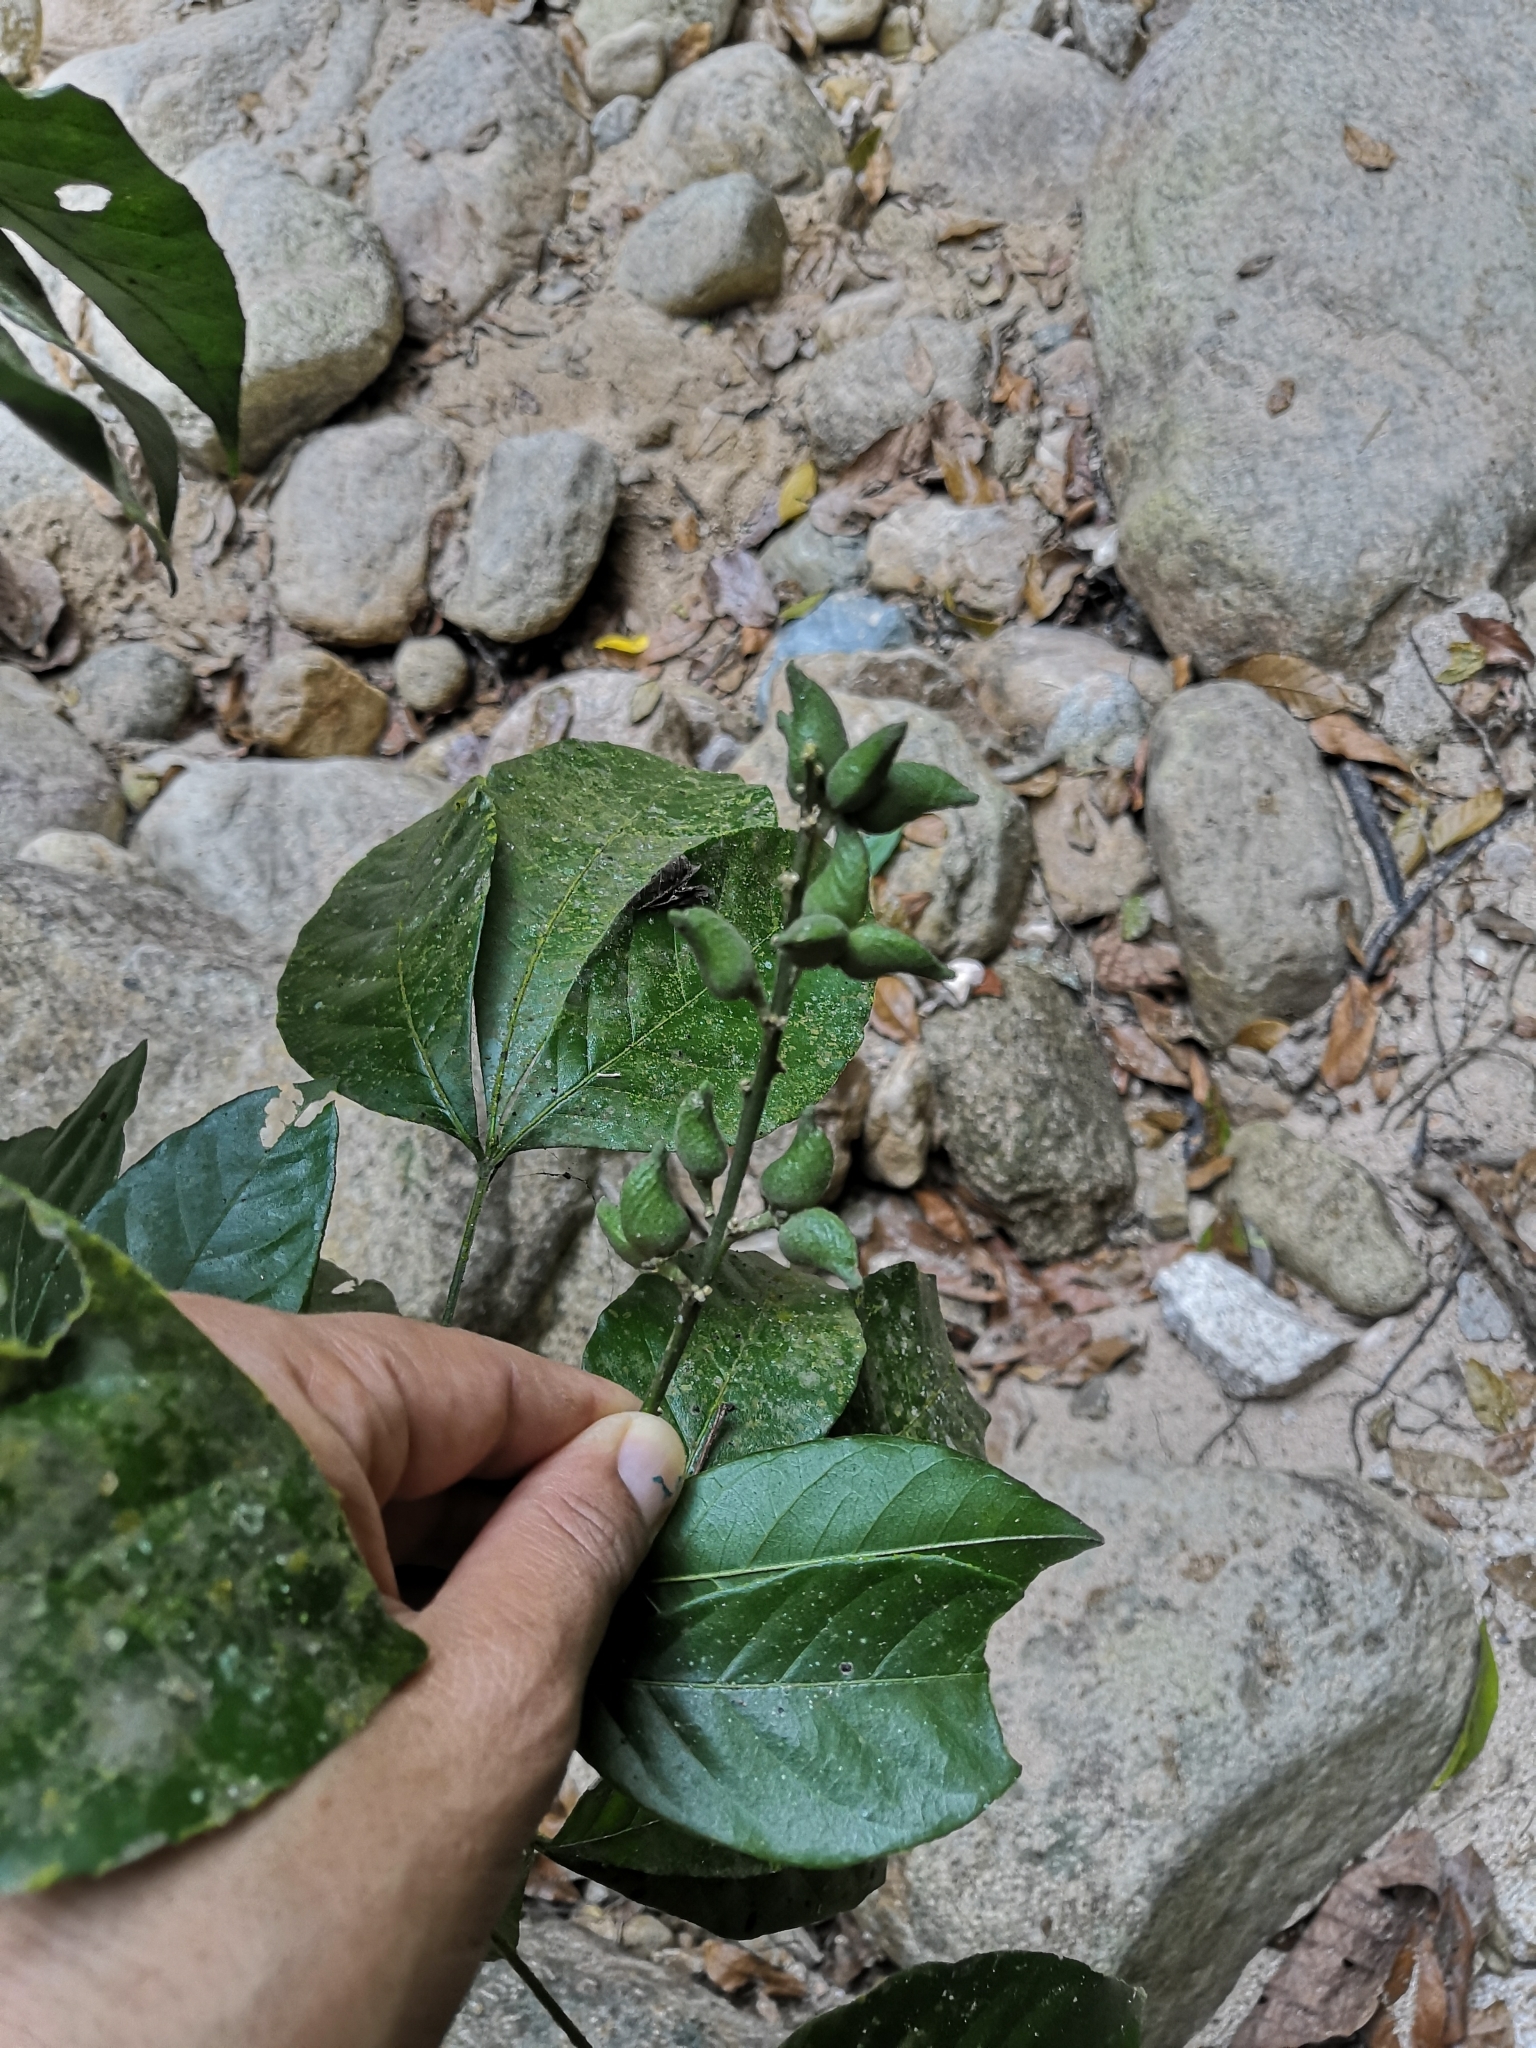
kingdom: Plantae
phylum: Tracheophyta
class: Magnoliopsida
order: Sapindales
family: Rutaceae
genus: Angostura
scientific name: Angostura granulosa
